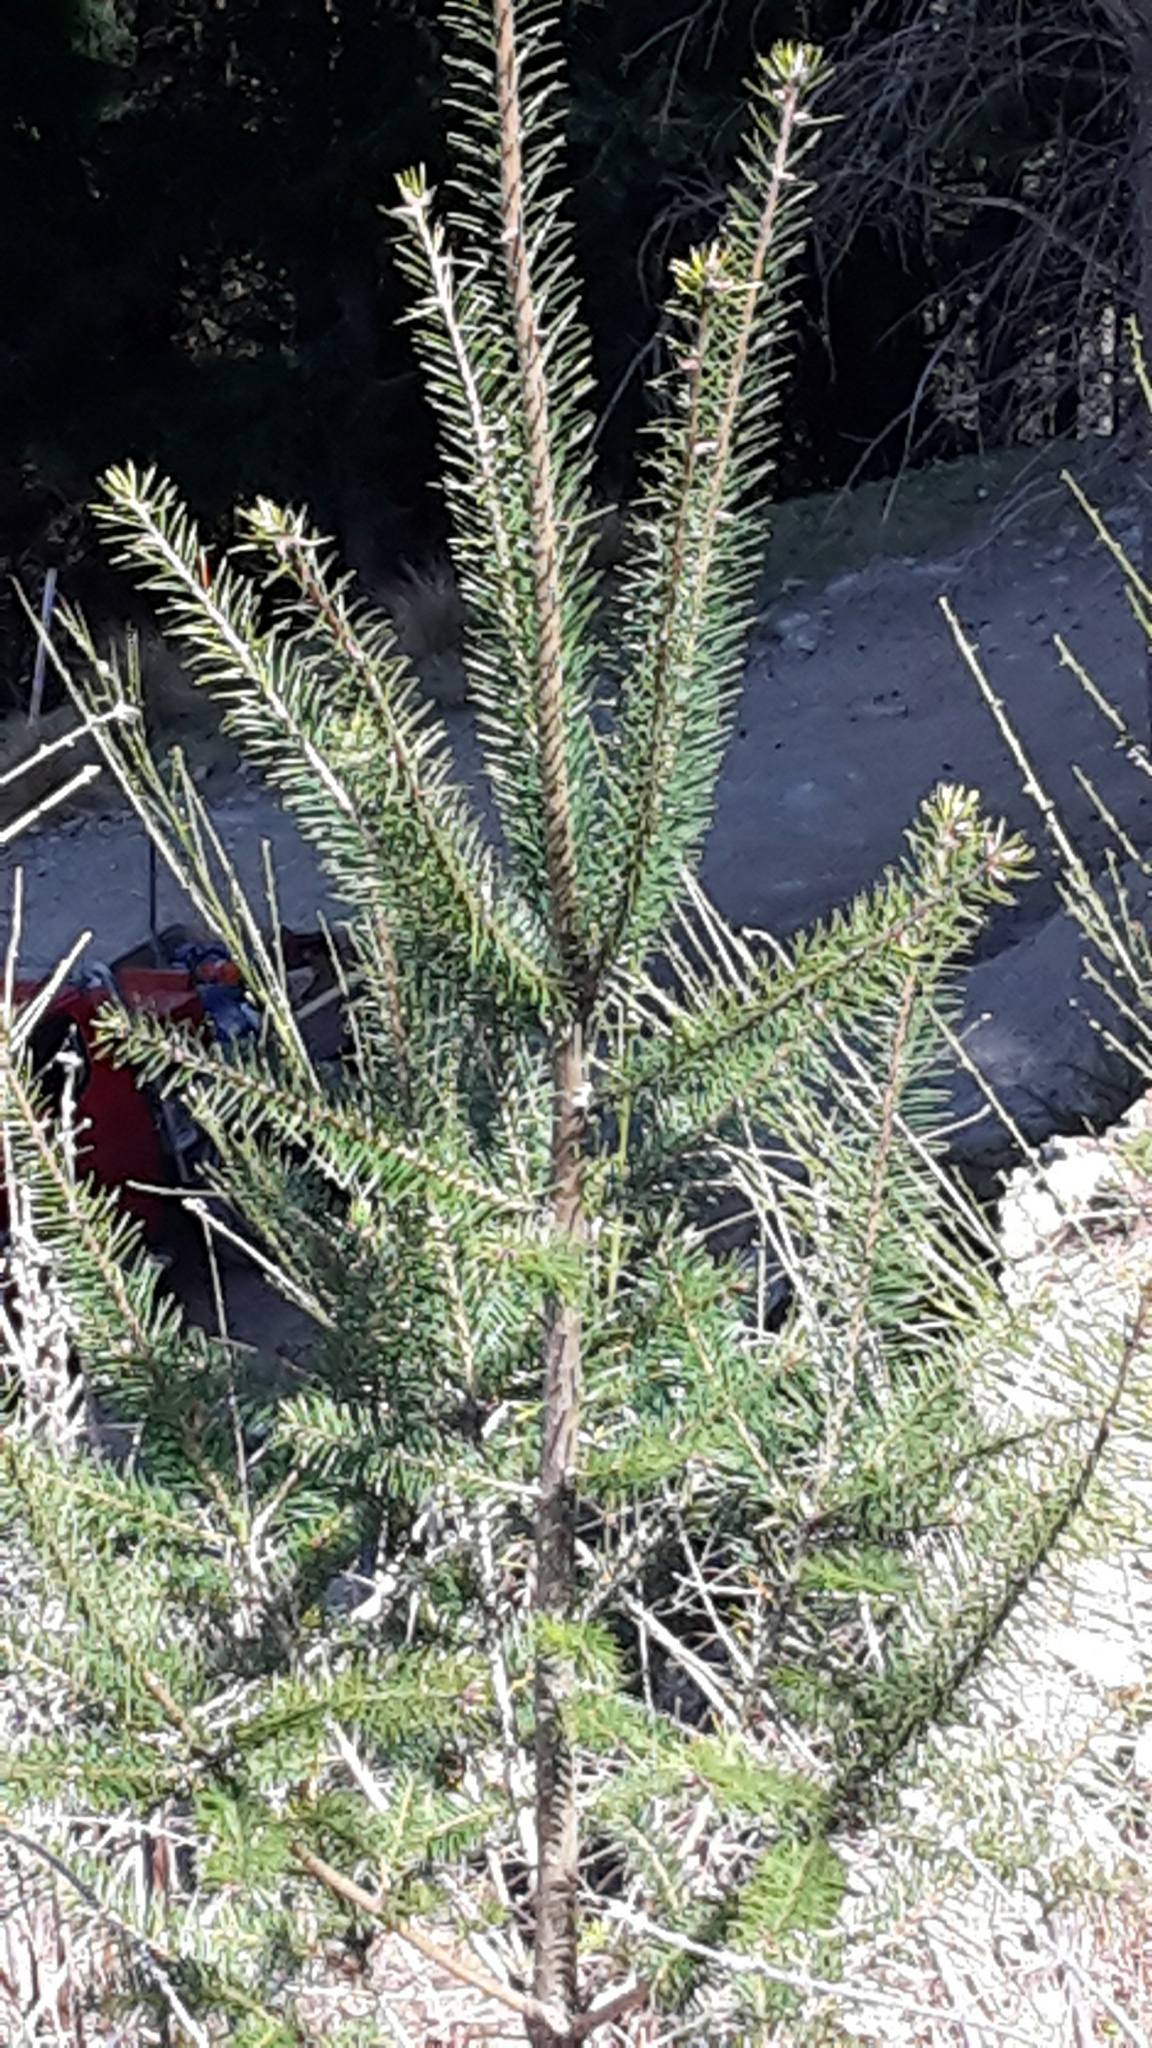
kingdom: Plantae
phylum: Tracheophyta
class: Pinopsida
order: Pinales
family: Pinaceae
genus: Pseudotsuga
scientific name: Pseudotsuga menziesii
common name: Douglas fir
